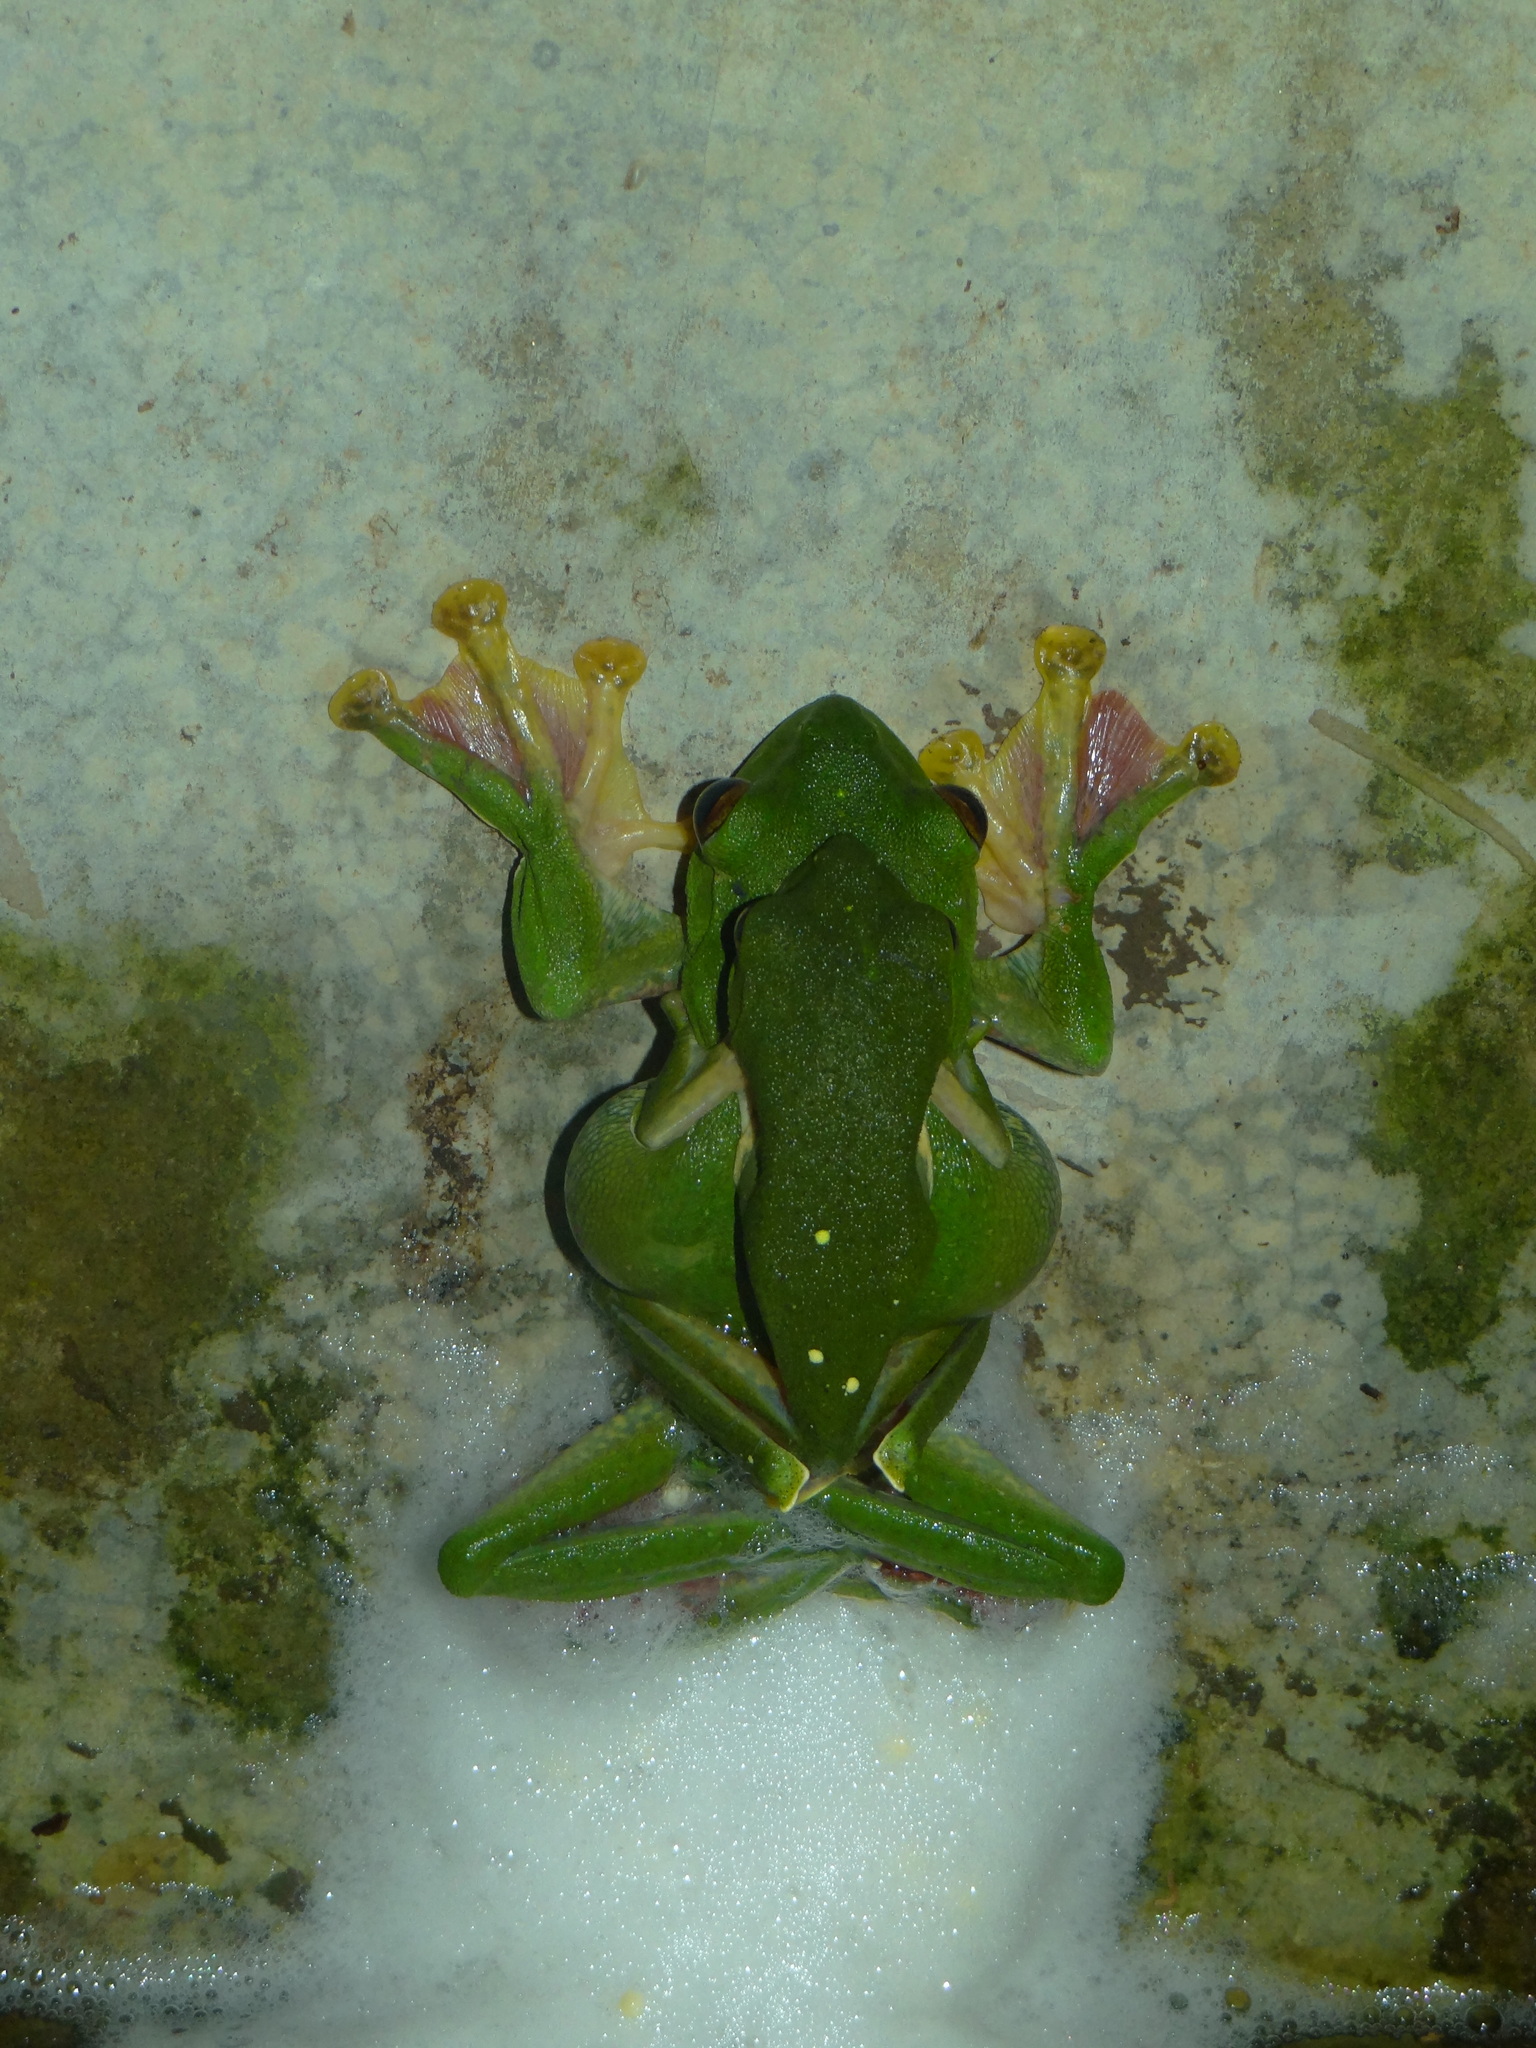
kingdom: Animalia
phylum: Chordata
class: Amphibia
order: Anura
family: Rhacophoridae
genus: Rhacophorus
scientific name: Rhacophorus malabaricus
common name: Malabar gliding frog
